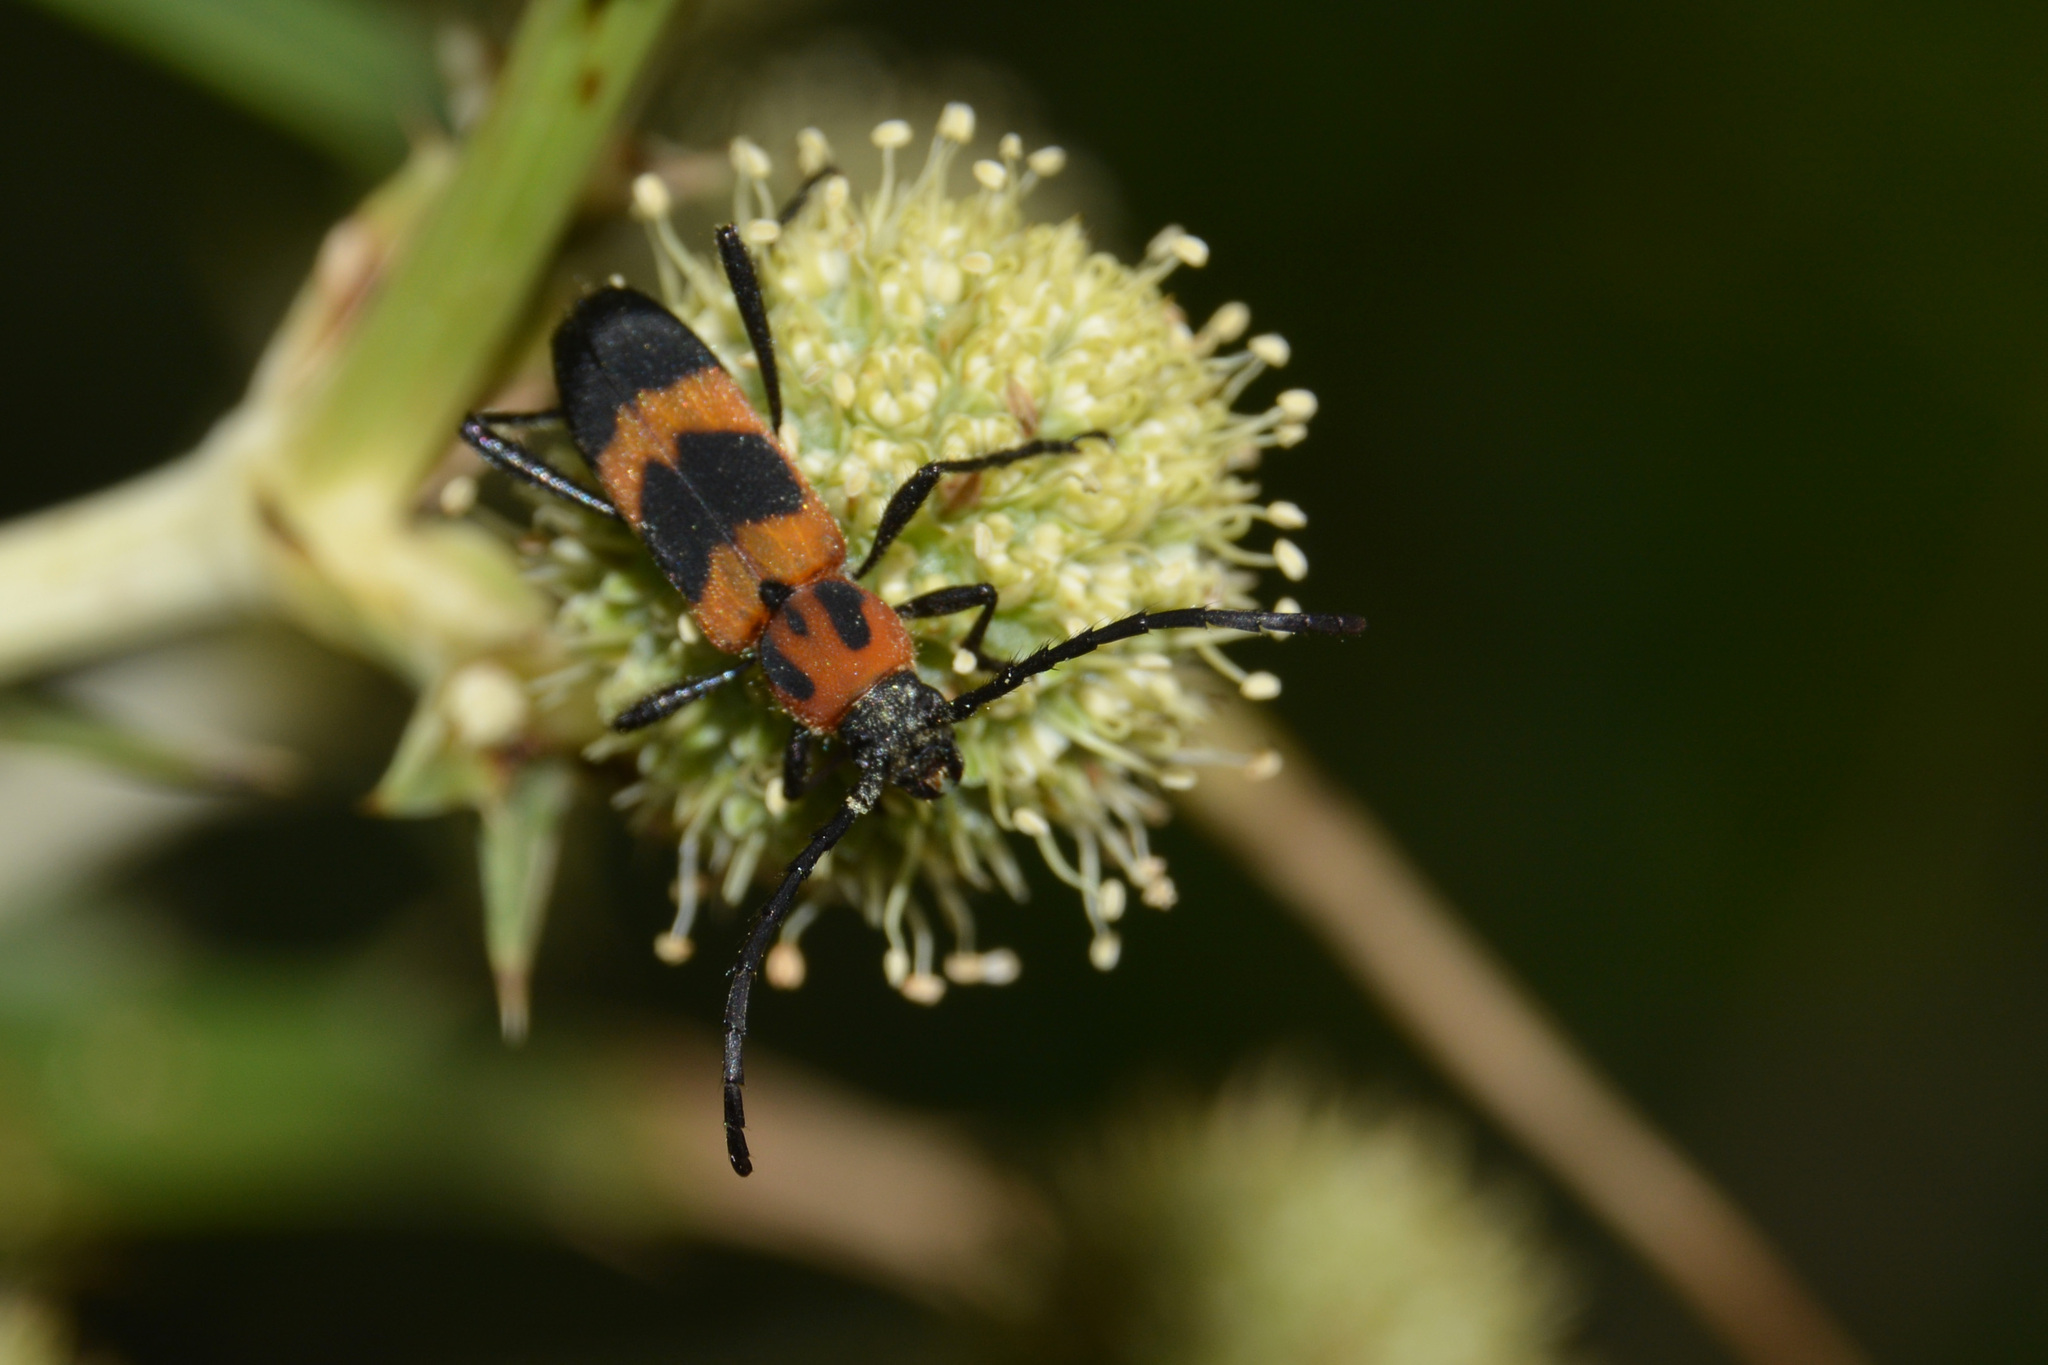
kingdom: Animalia
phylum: Arthropoda
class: Insecta
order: Coleoptera
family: Cerambycidae
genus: Erythrochiton
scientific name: Erythrochiton jucundum
